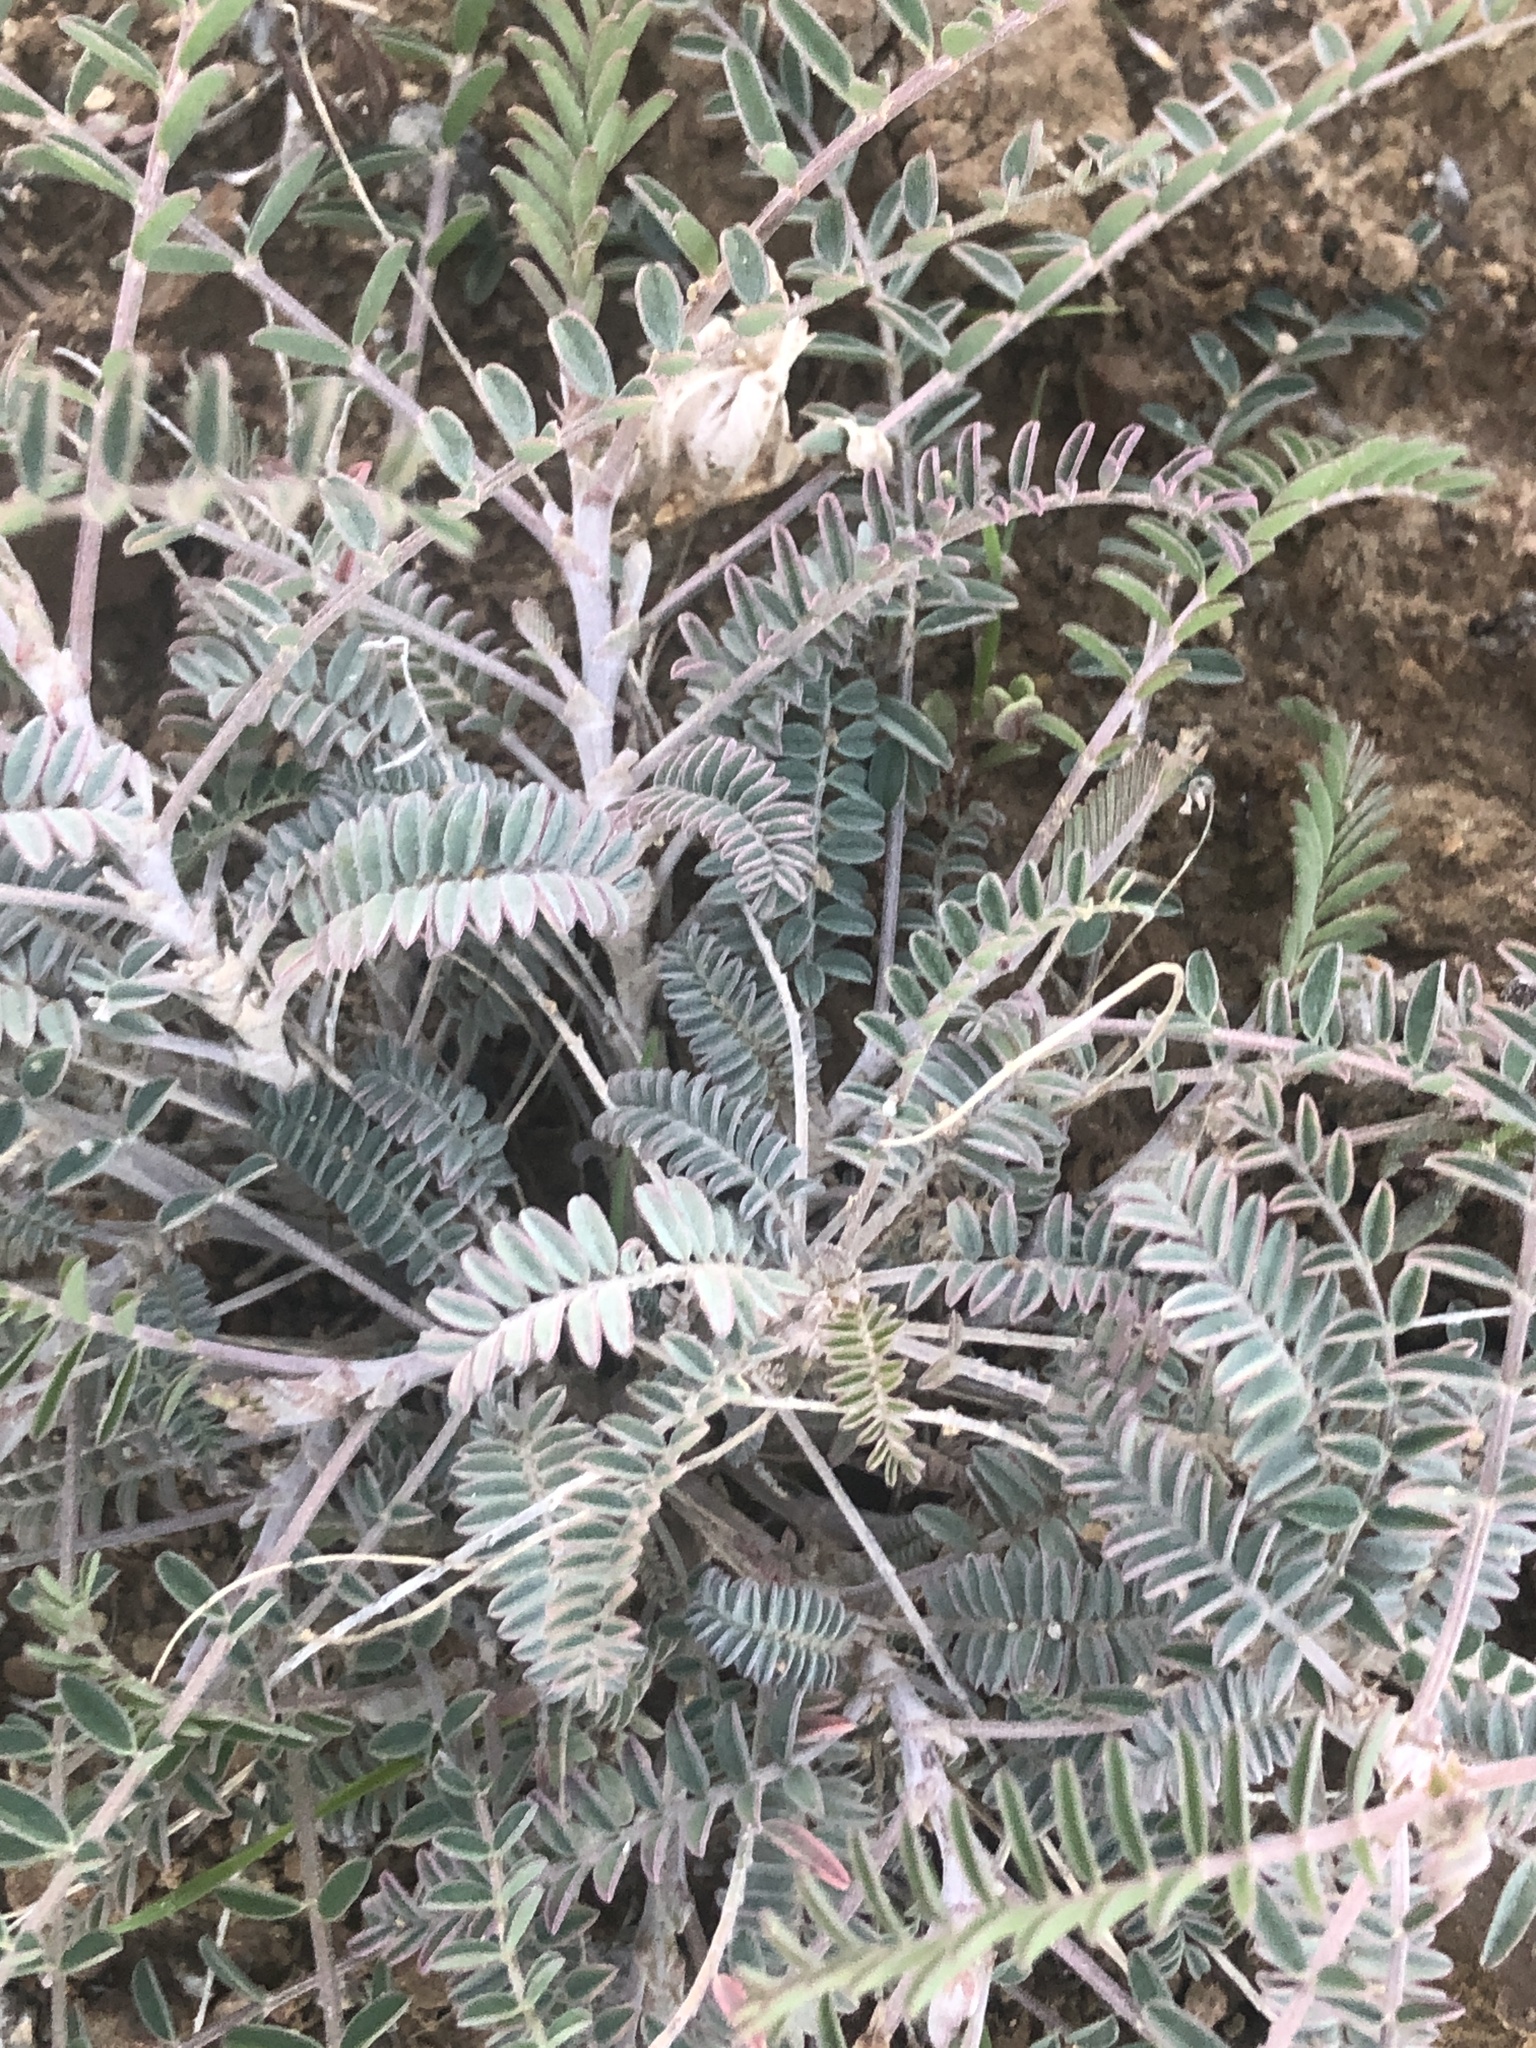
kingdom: Plantae
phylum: Tracheophyta
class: Magnoliopsida
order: Fabales
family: Fabaceae
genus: Astragalus
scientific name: Astragalus trichopodus
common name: Santa barbara milk-vetch
